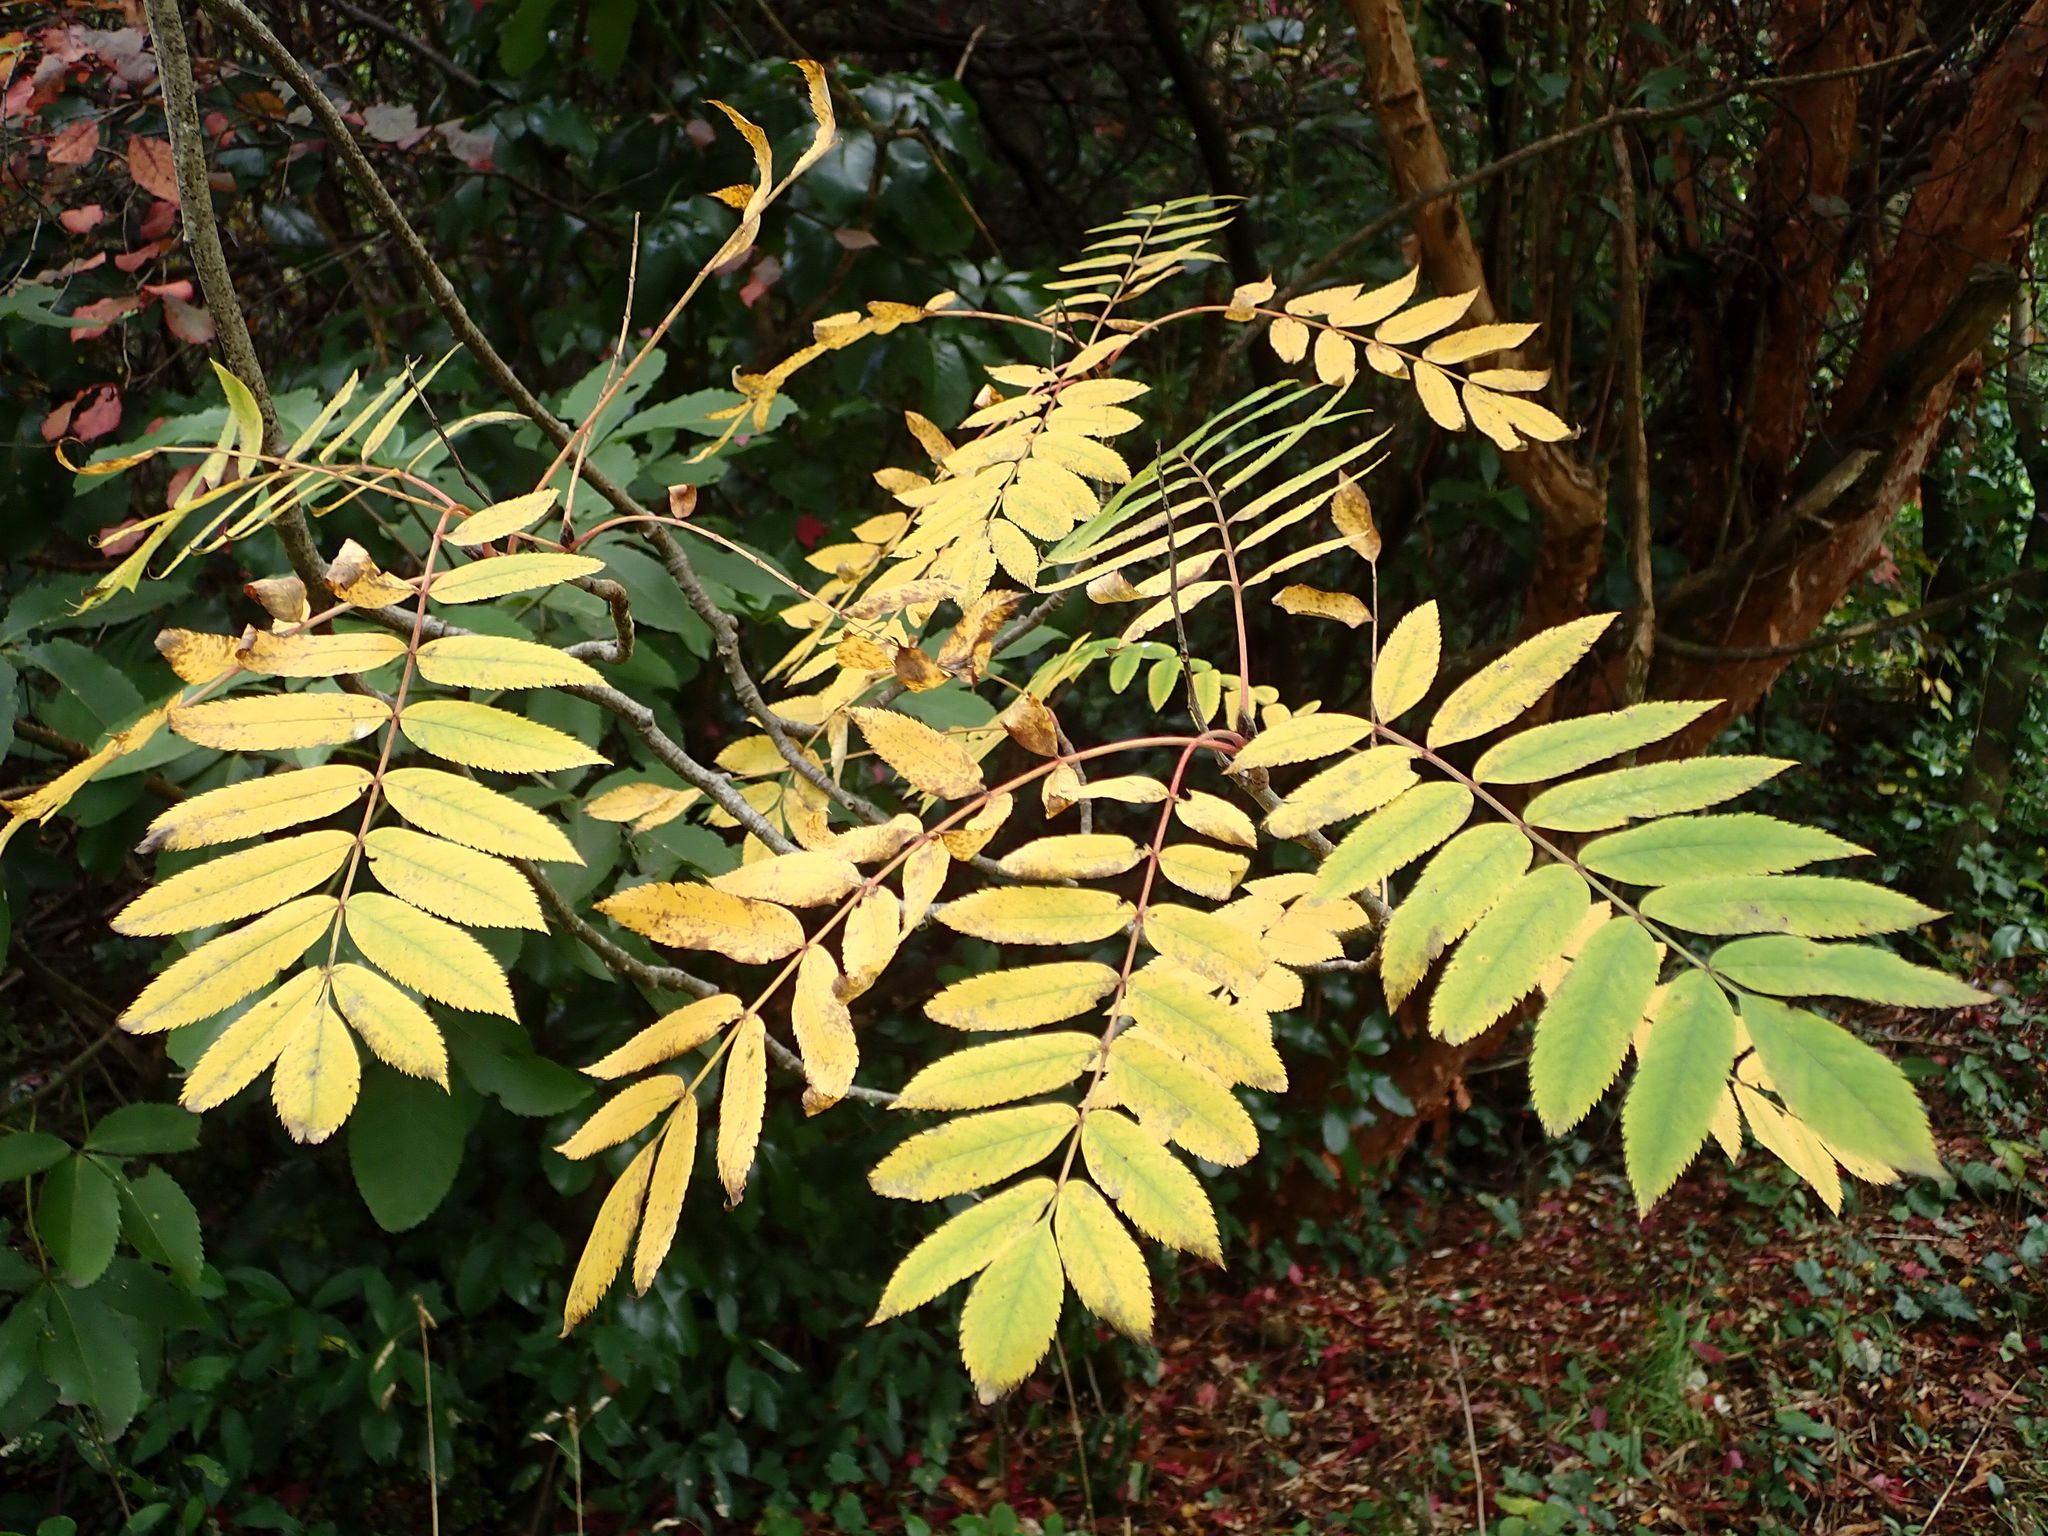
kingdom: Plantae
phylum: Tracheophyta
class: Magnoliopsida
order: Rosales
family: Rosaceae
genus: Sorbus
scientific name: Sorbus aucuparia
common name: Rowan
